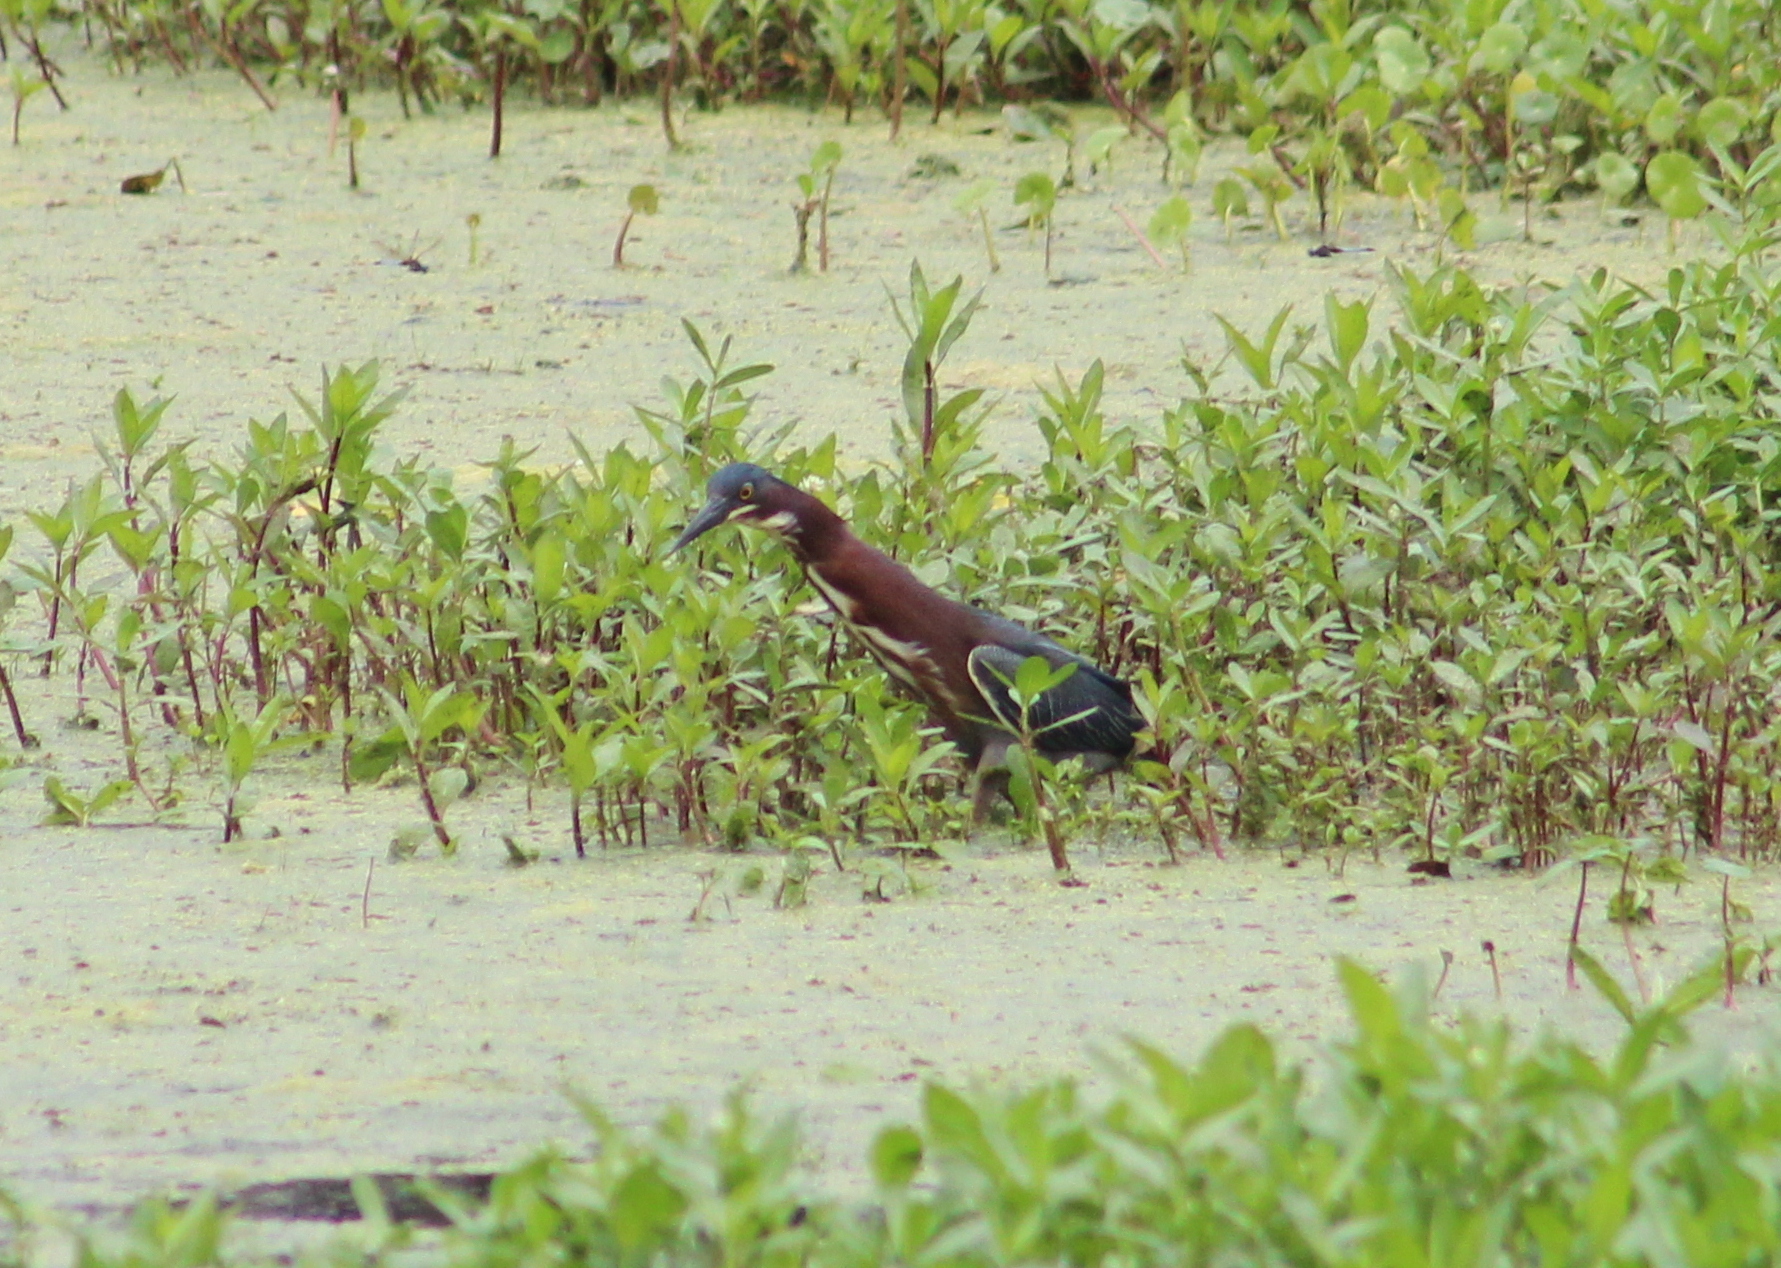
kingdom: Animalia
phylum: Chordata
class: Aves
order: Pelecaniformes
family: Ardeidae
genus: Butorides
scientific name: Butorides virescens
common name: Green heron
